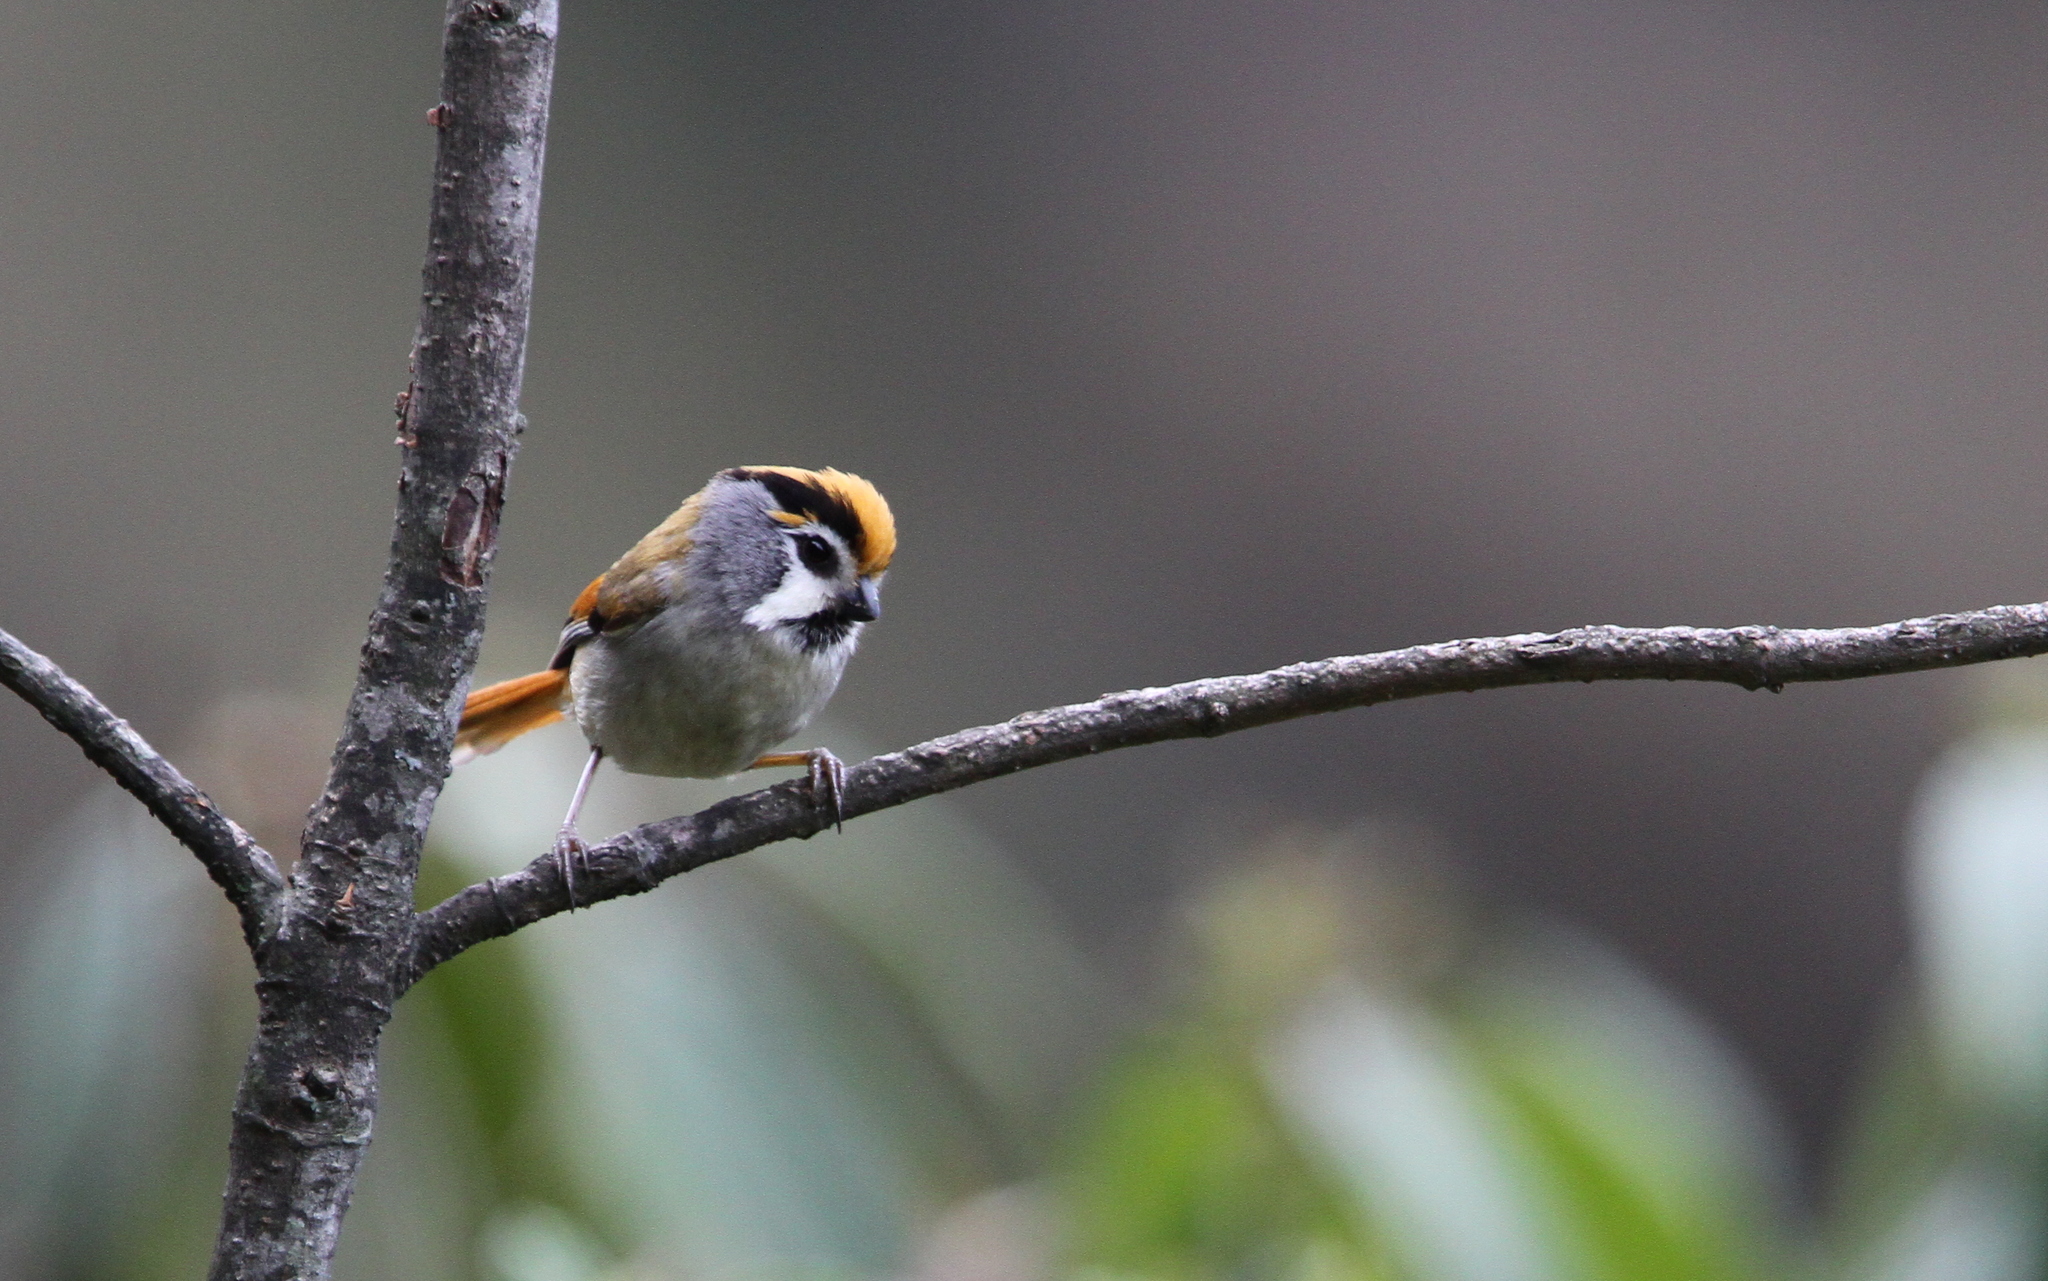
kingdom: Animalia
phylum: Chordata
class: Aves
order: Passeriformes
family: Sylviidae
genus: Suthora
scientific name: Suthora nipalensis
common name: Black-throated parrotbill
